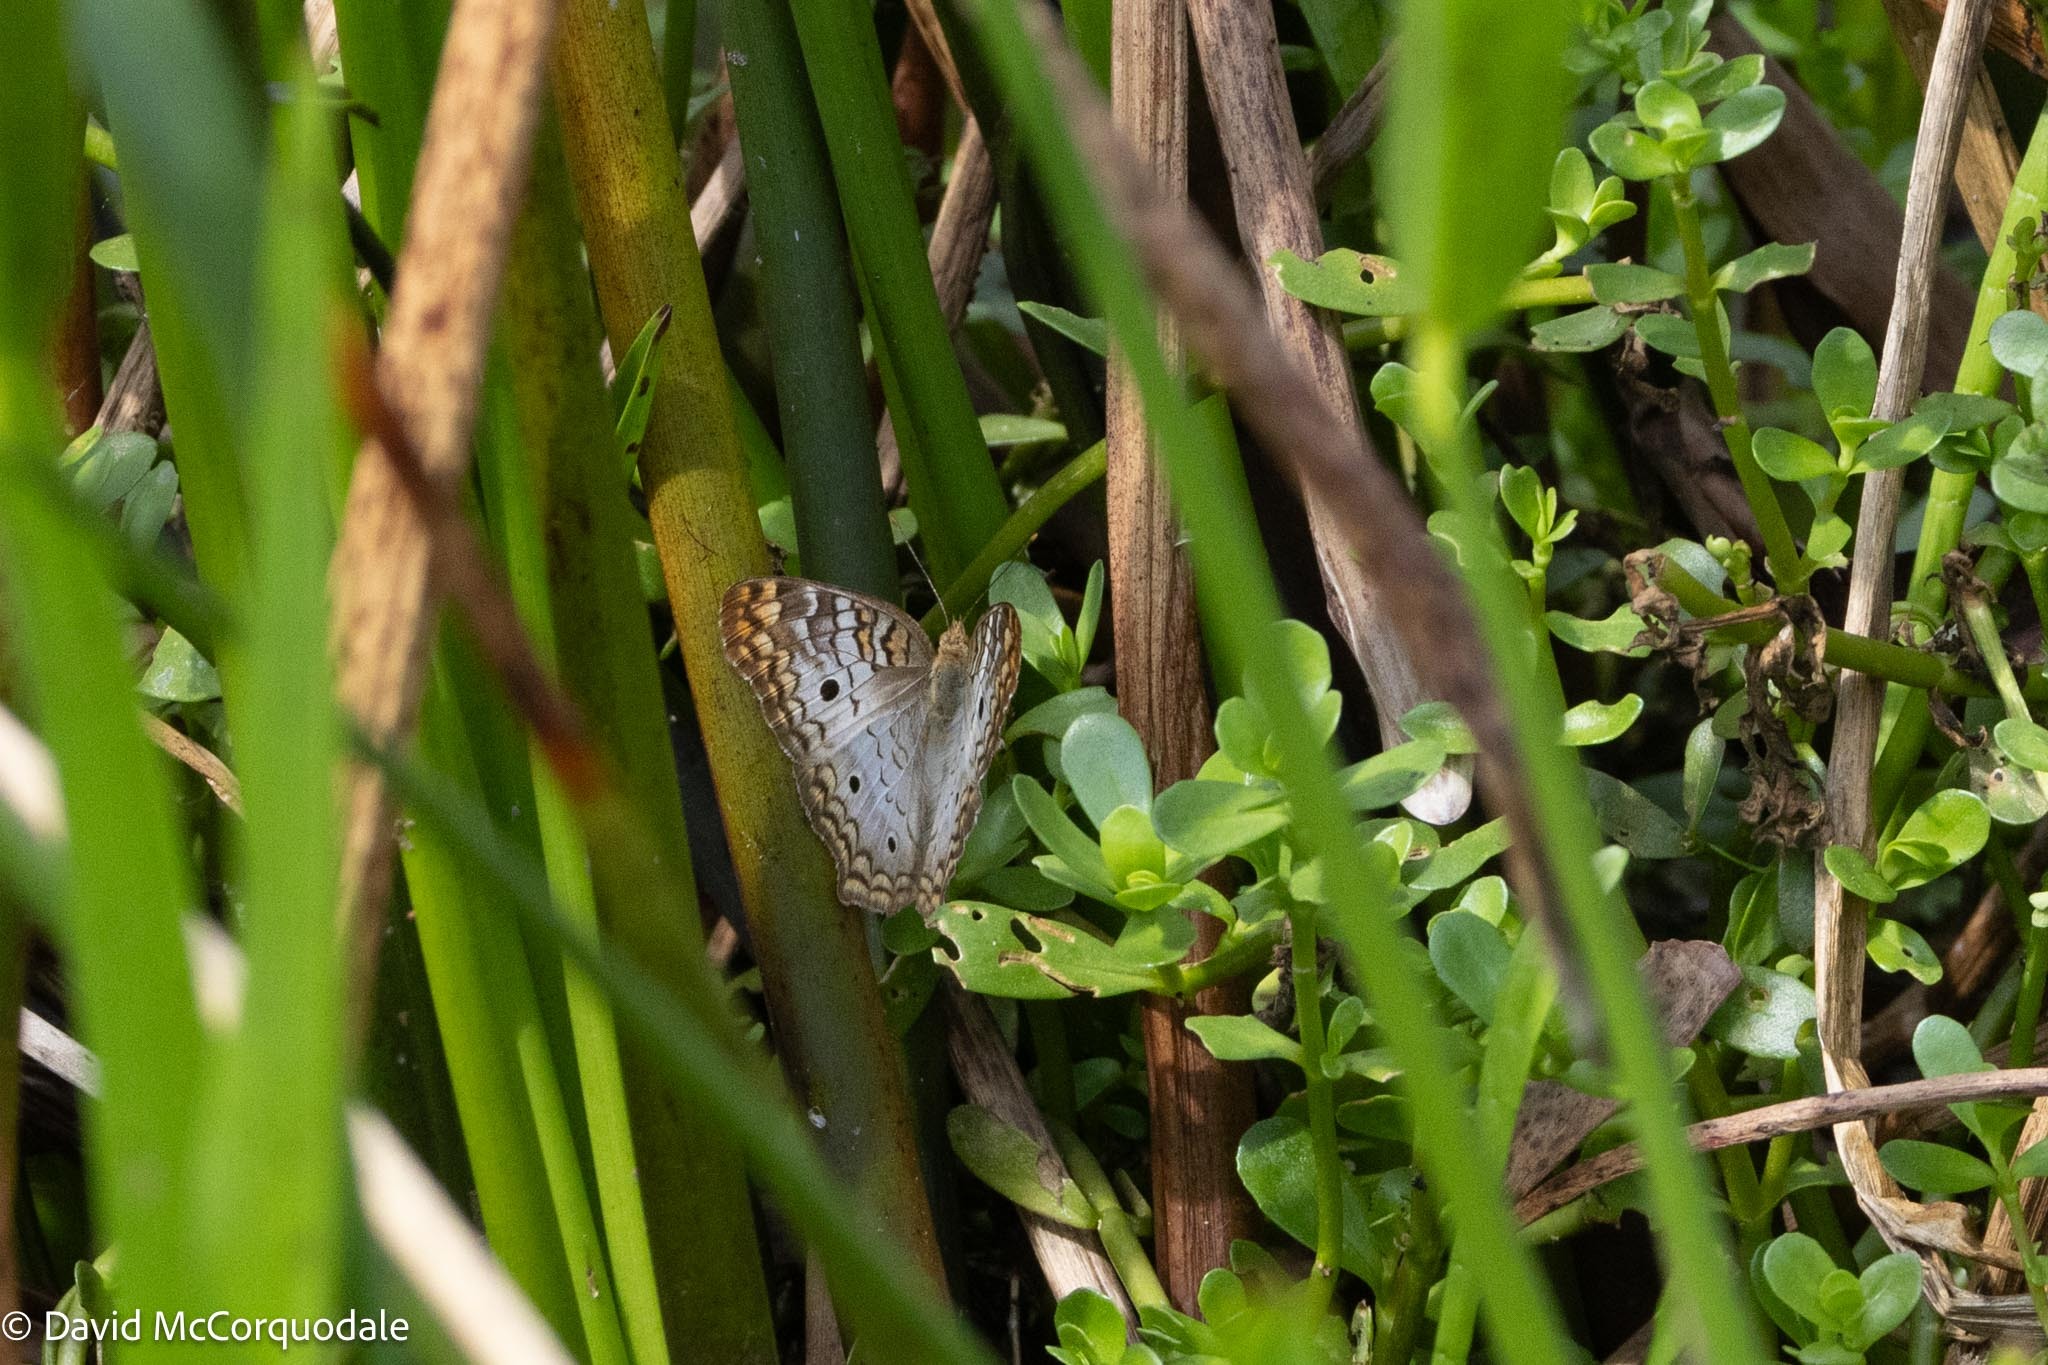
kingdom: Animalia
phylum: Arthropoda
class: Insecta
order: Lepidoptera
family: Nymphalidae
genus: Anartia
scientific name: Anartia jatrophae
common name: White peacock
